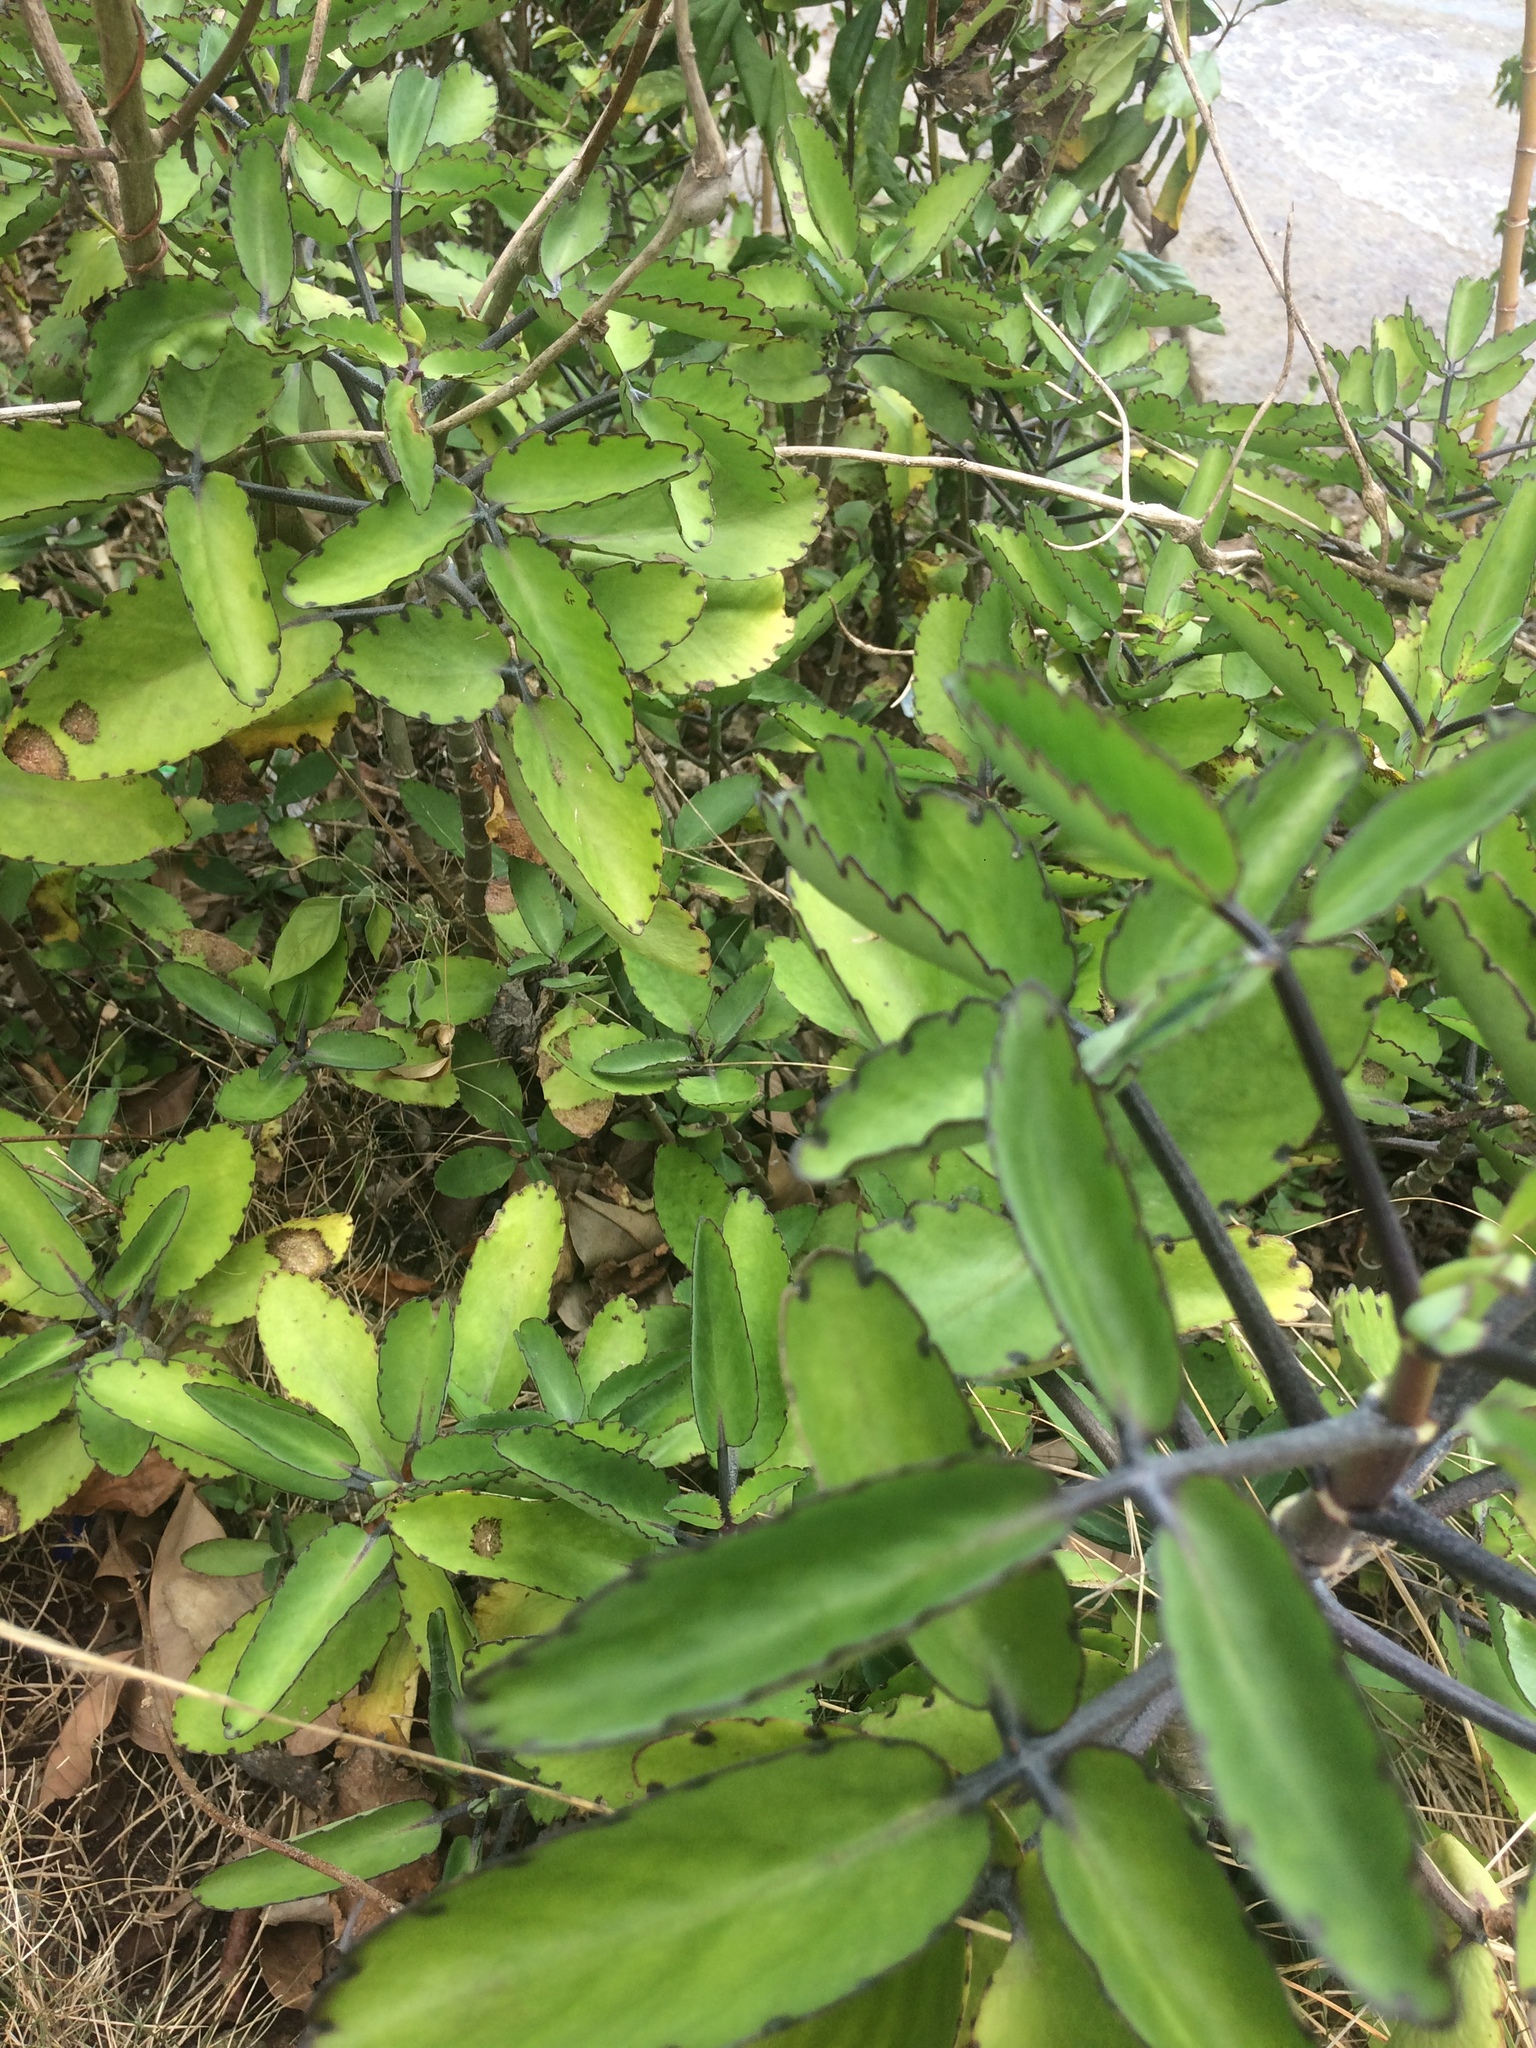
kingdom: Plantae
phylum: Tracheophyta
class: Magnoliopsida
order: Saxifragales
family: Crassulaceae
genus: Kalanchoe
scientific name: Kalanchoe pinnata
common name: Cathedral bells
